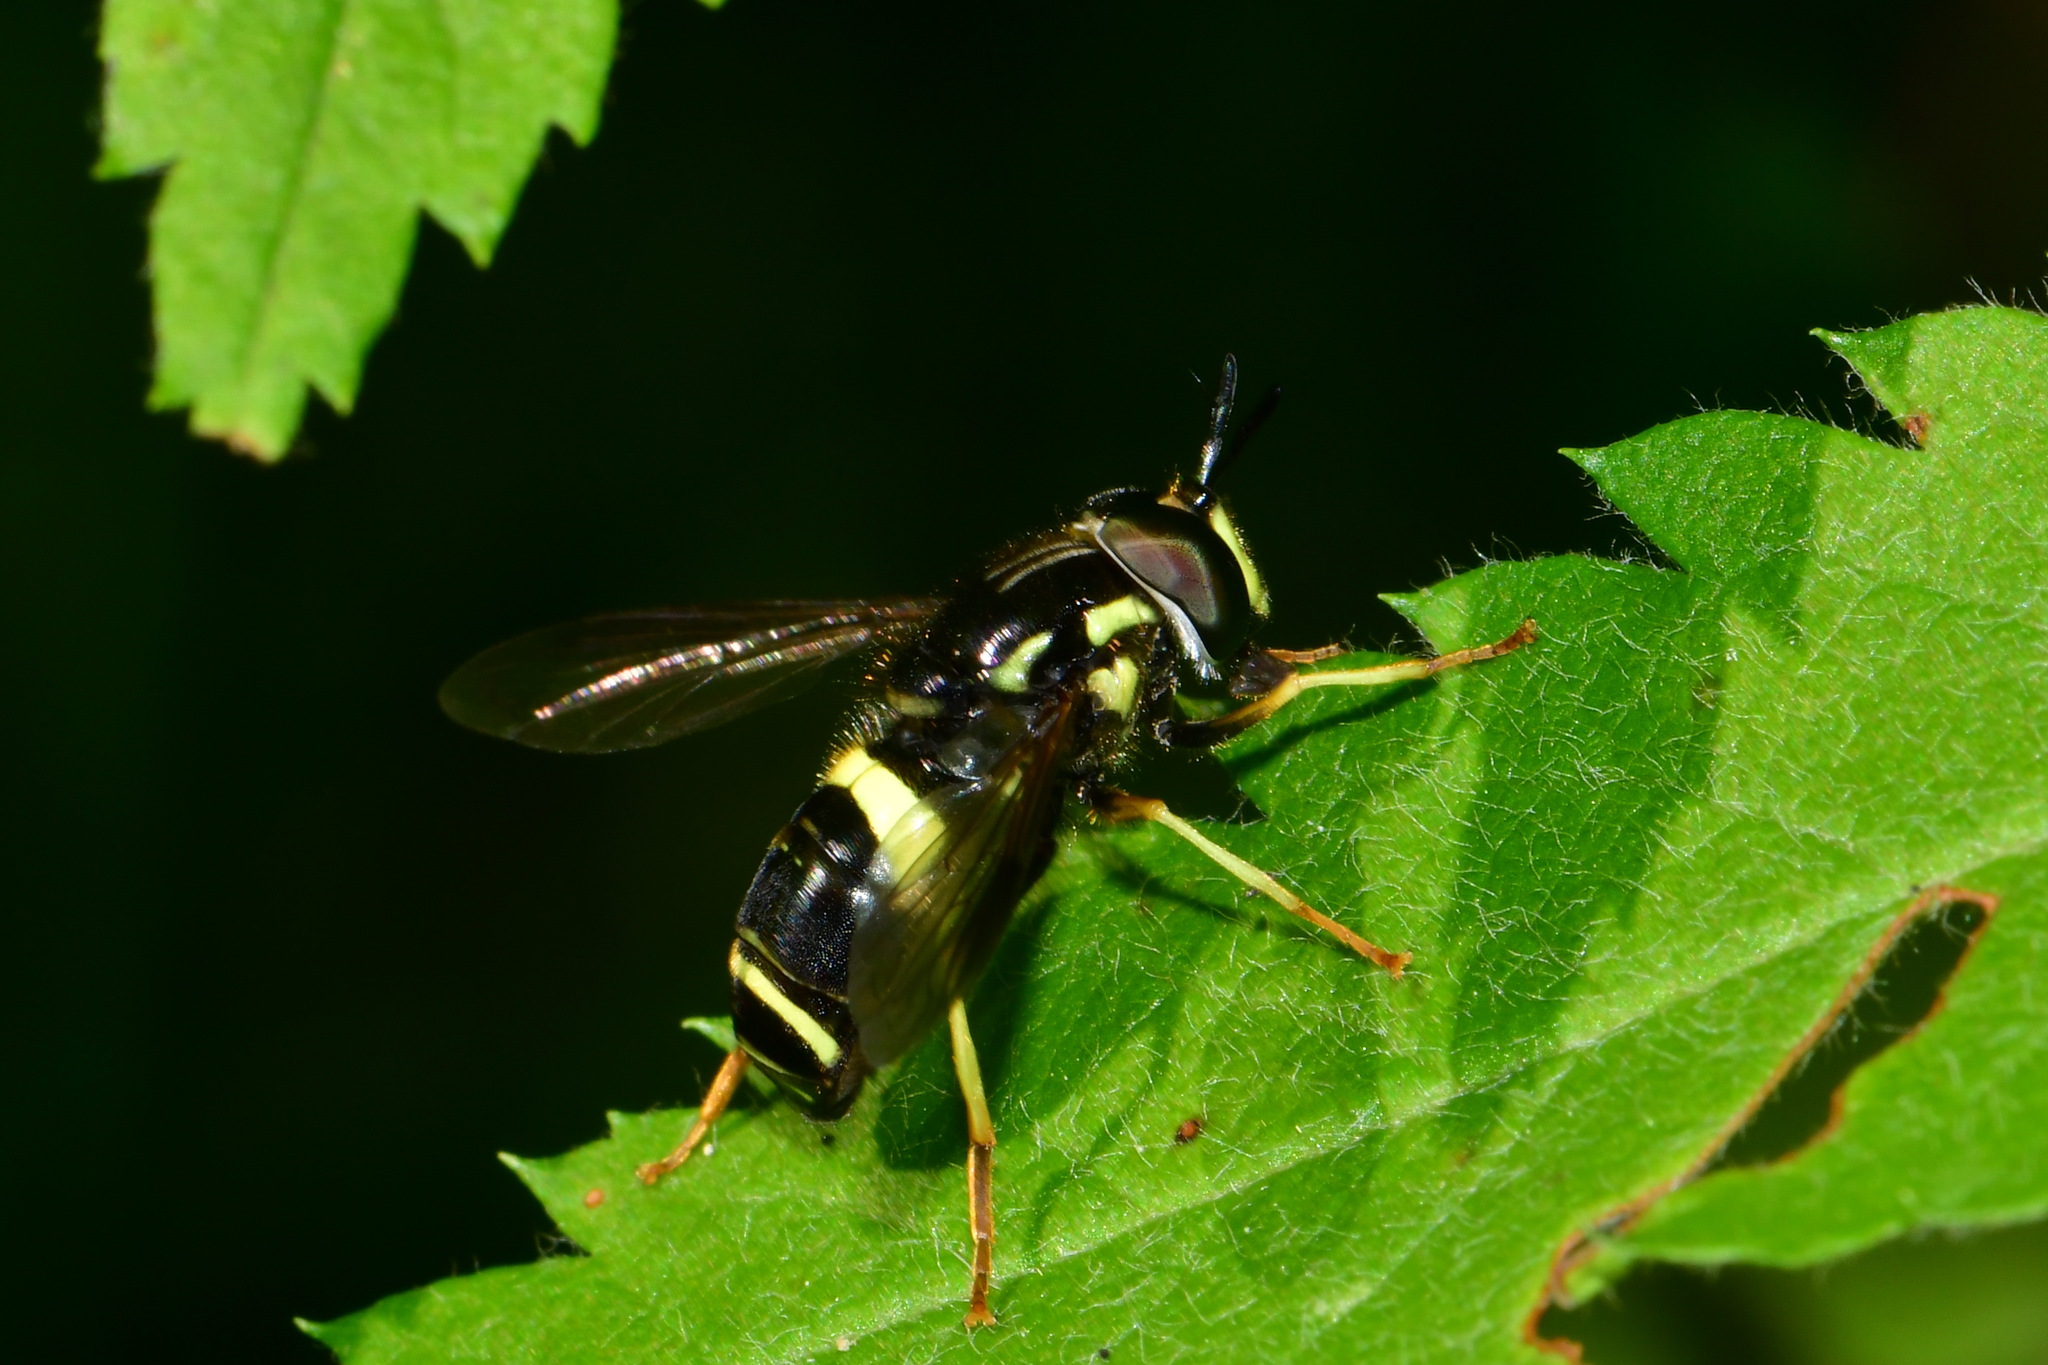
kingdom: Animalia
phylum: Arthropoda
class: Insecta
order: Diptera
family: Syrphidae
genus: Chrysotoxum
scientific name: Chrysotoxum bicincta
